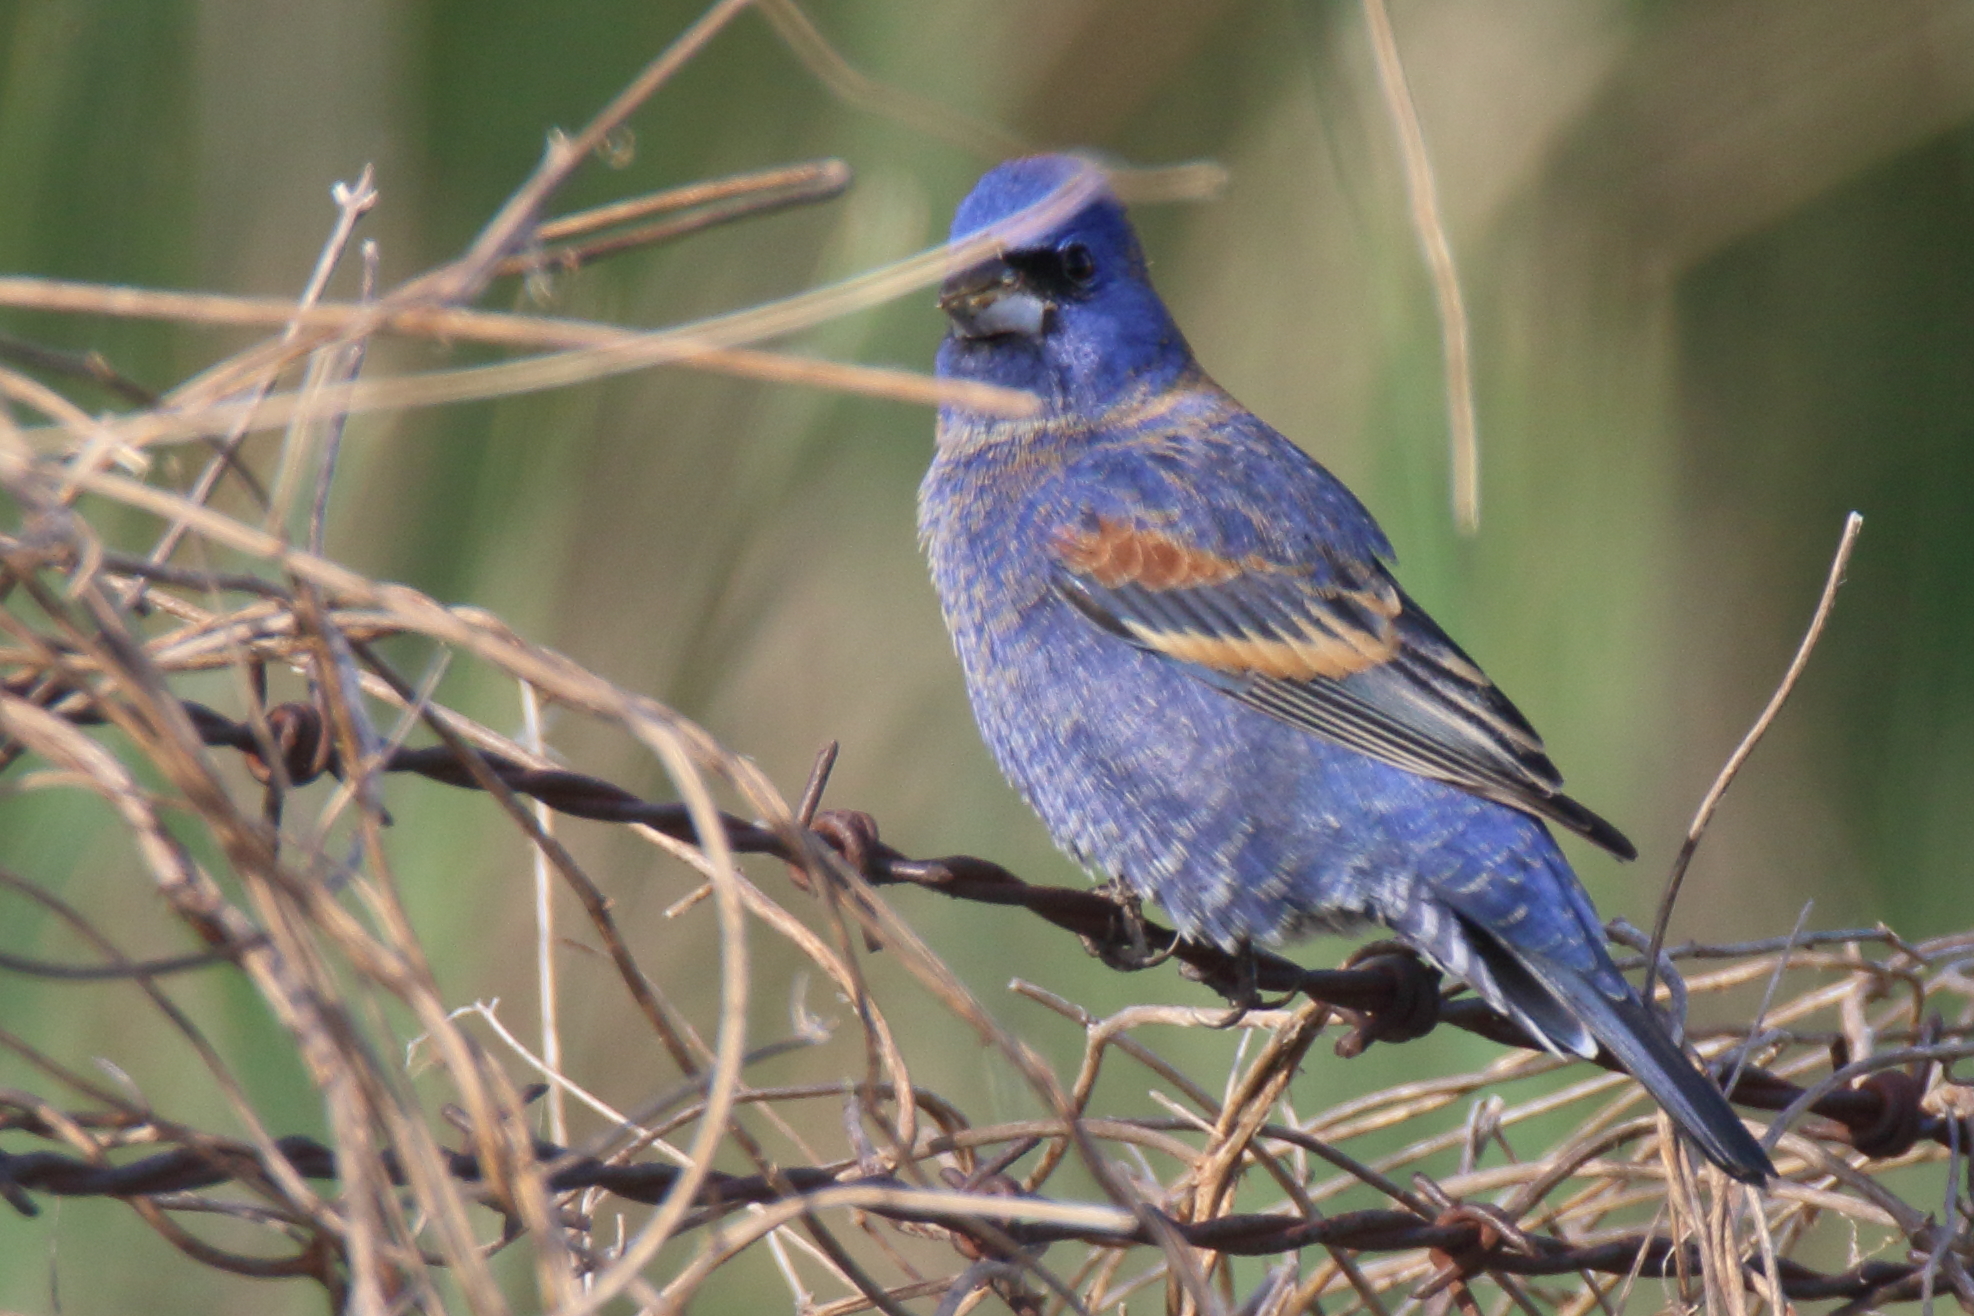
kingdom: Animalia
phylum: Chordata
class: Aves
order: Passeriformes
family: Cardinalidae
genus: Passerina
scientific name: Passerina caerulea
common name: Blue grosbeak
